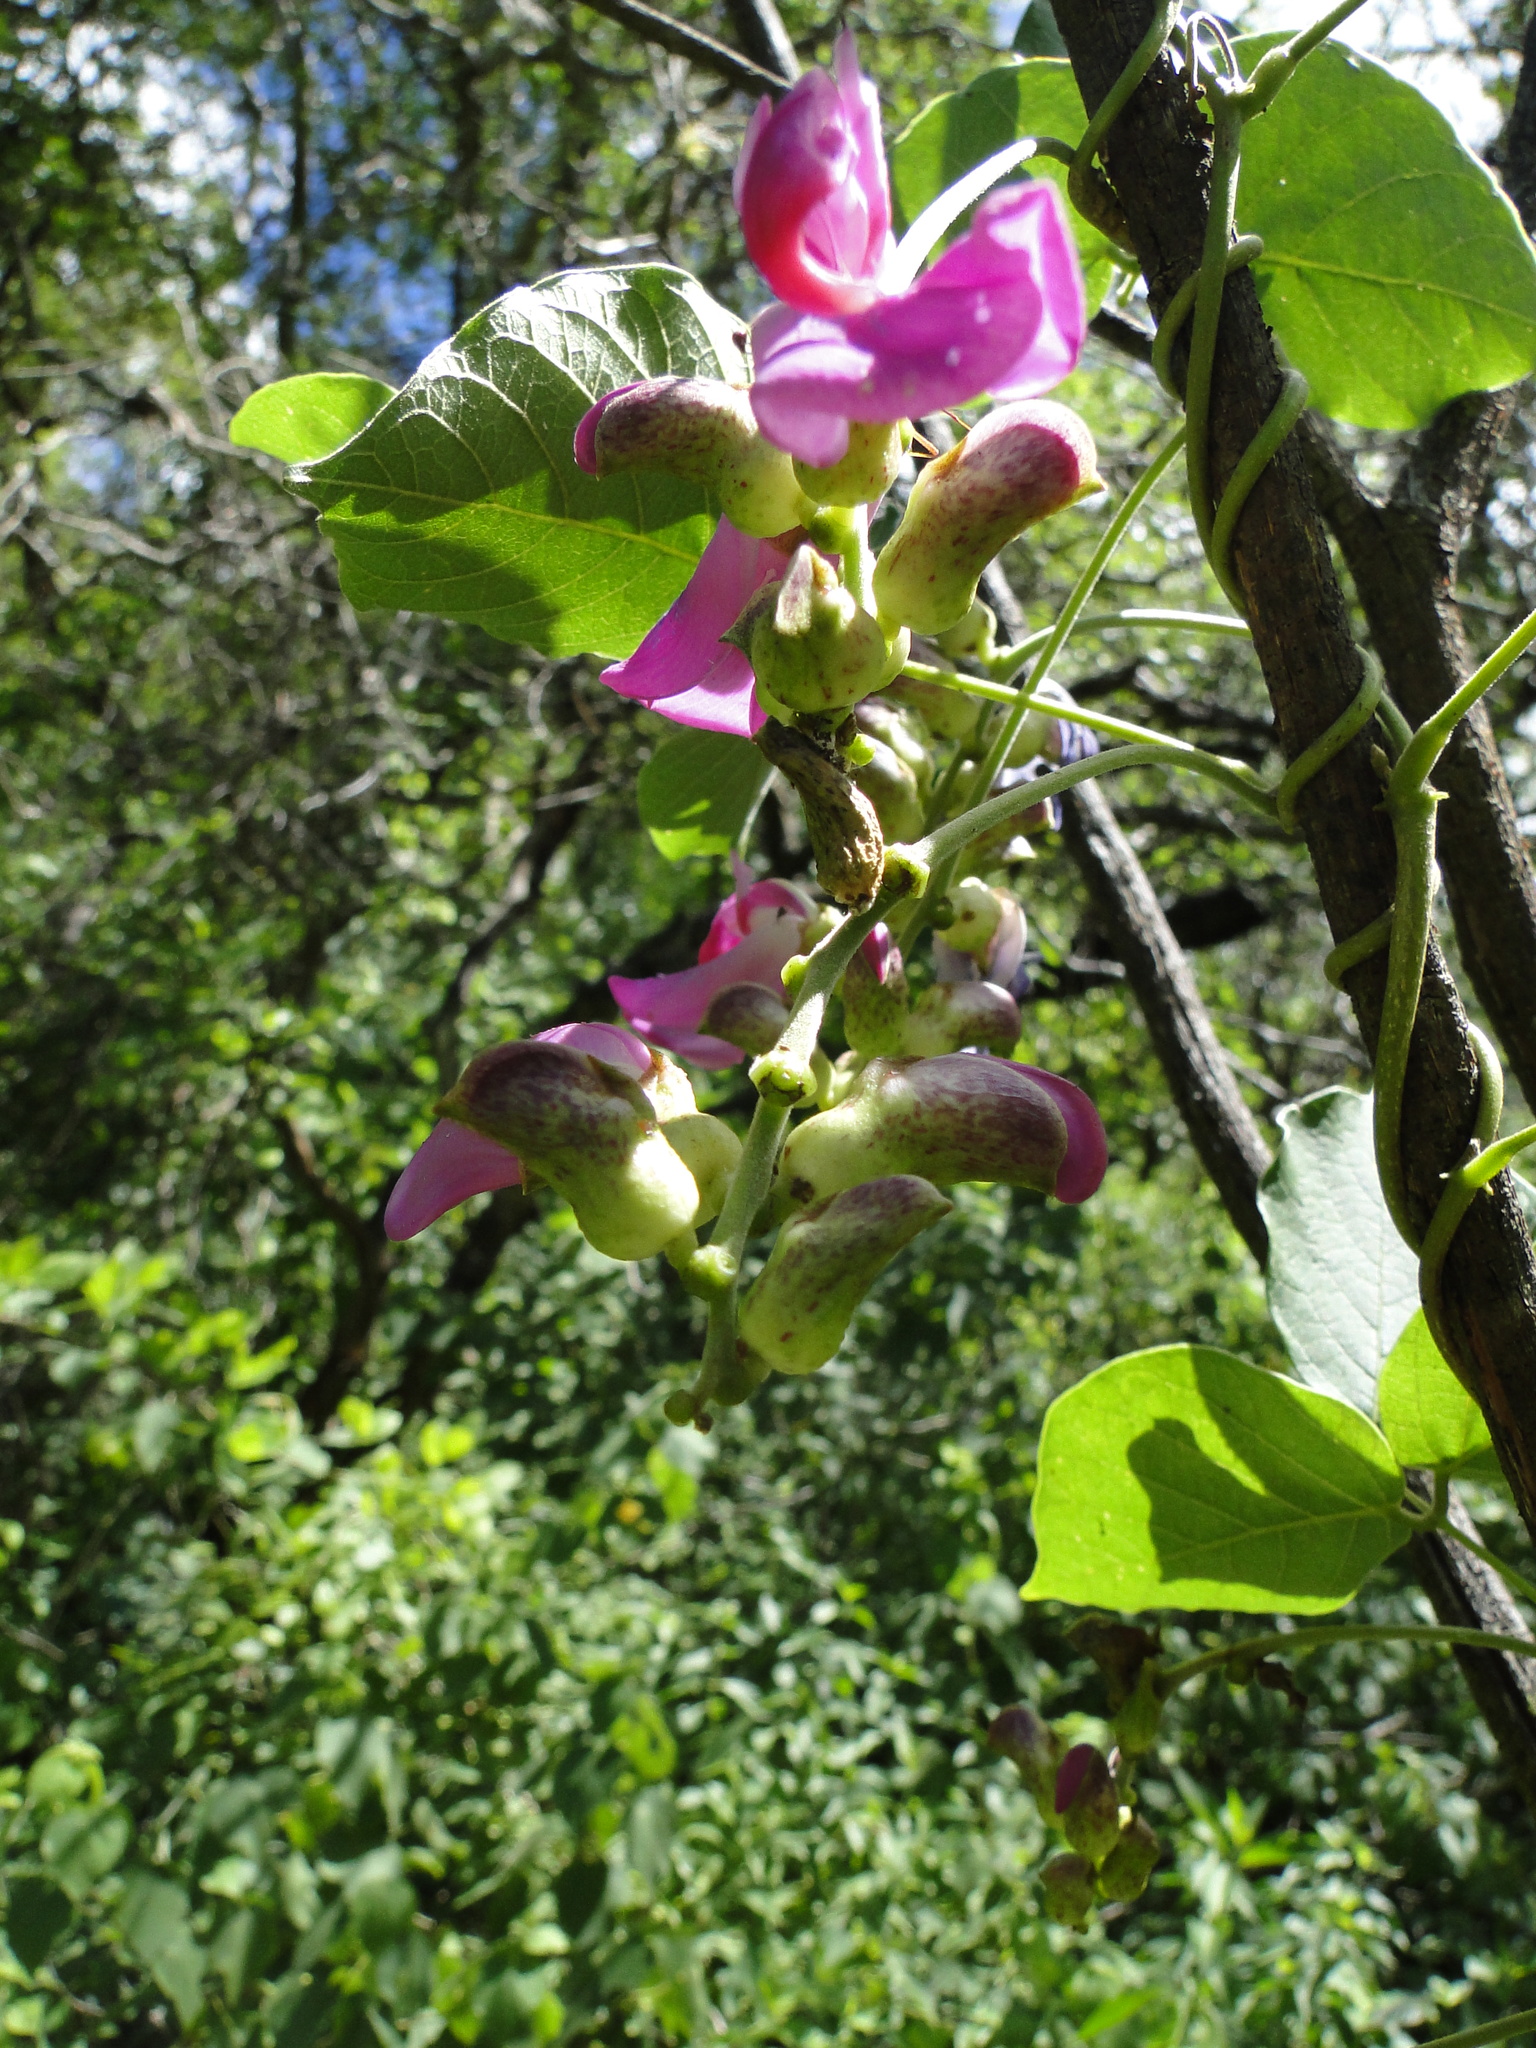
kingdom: Plantae
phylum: Tracheophyta
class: Magnoliopsida
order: Fabales
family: Fabaceae
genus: Canavalia
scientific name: Canavalia septentrionalis
